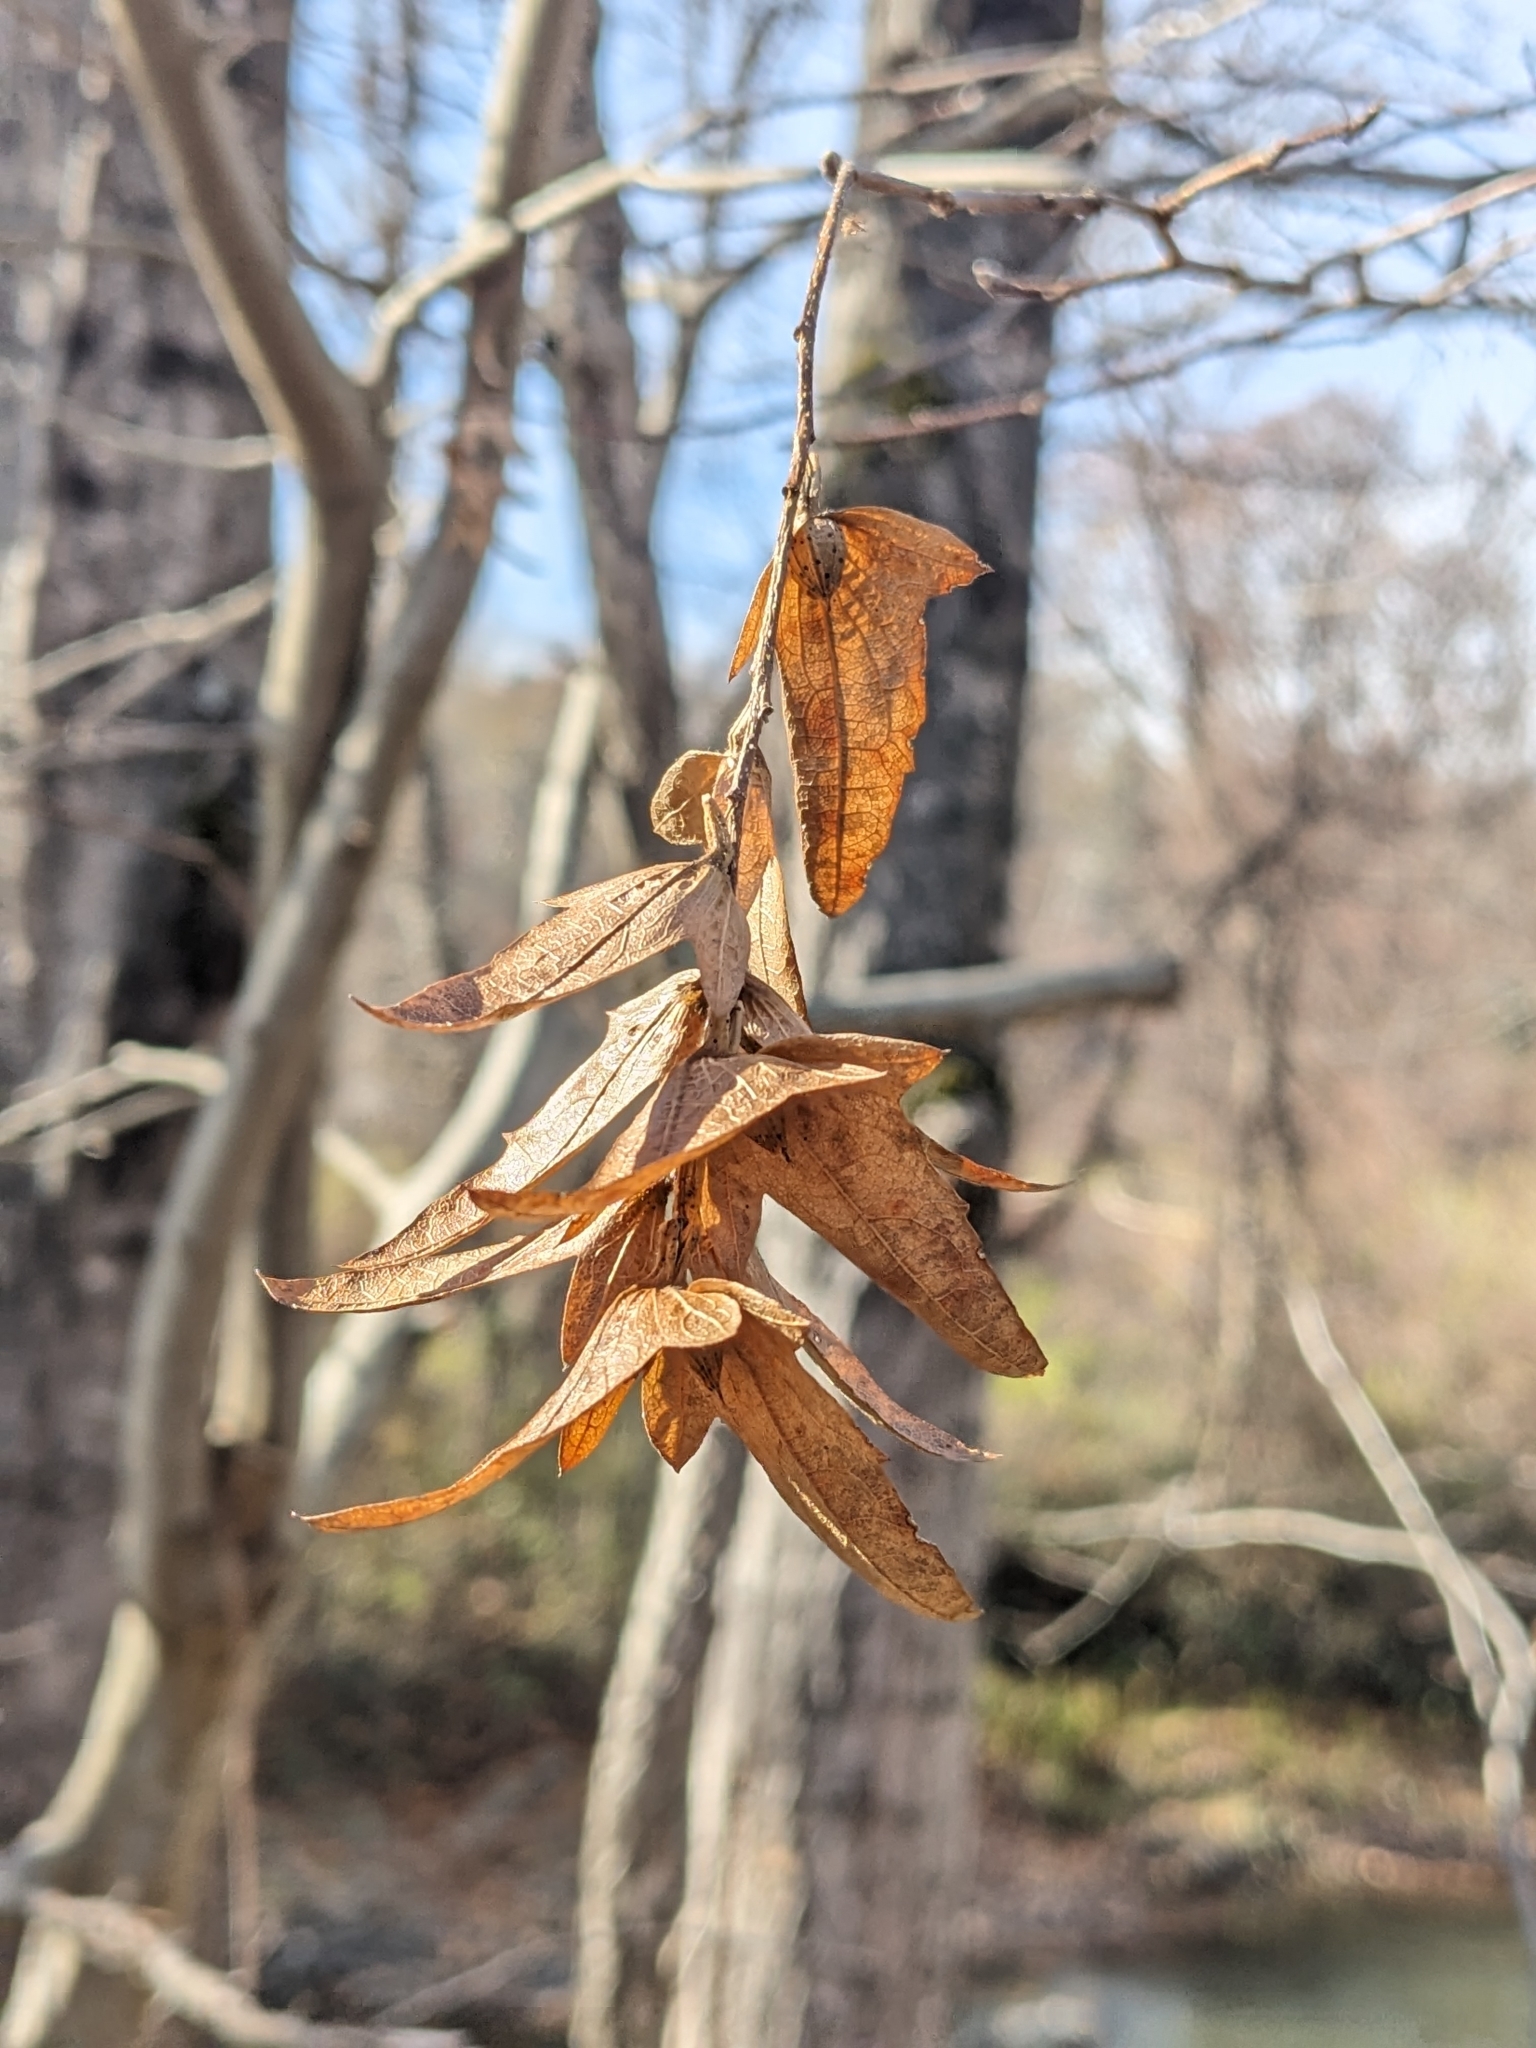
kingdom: Plantae
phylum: Tracheophyta
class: Magnoliopsida
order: Fagales
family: Betulaceae
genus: Carpinus
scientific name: Carpinus caroliniana
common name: American hornbeam
